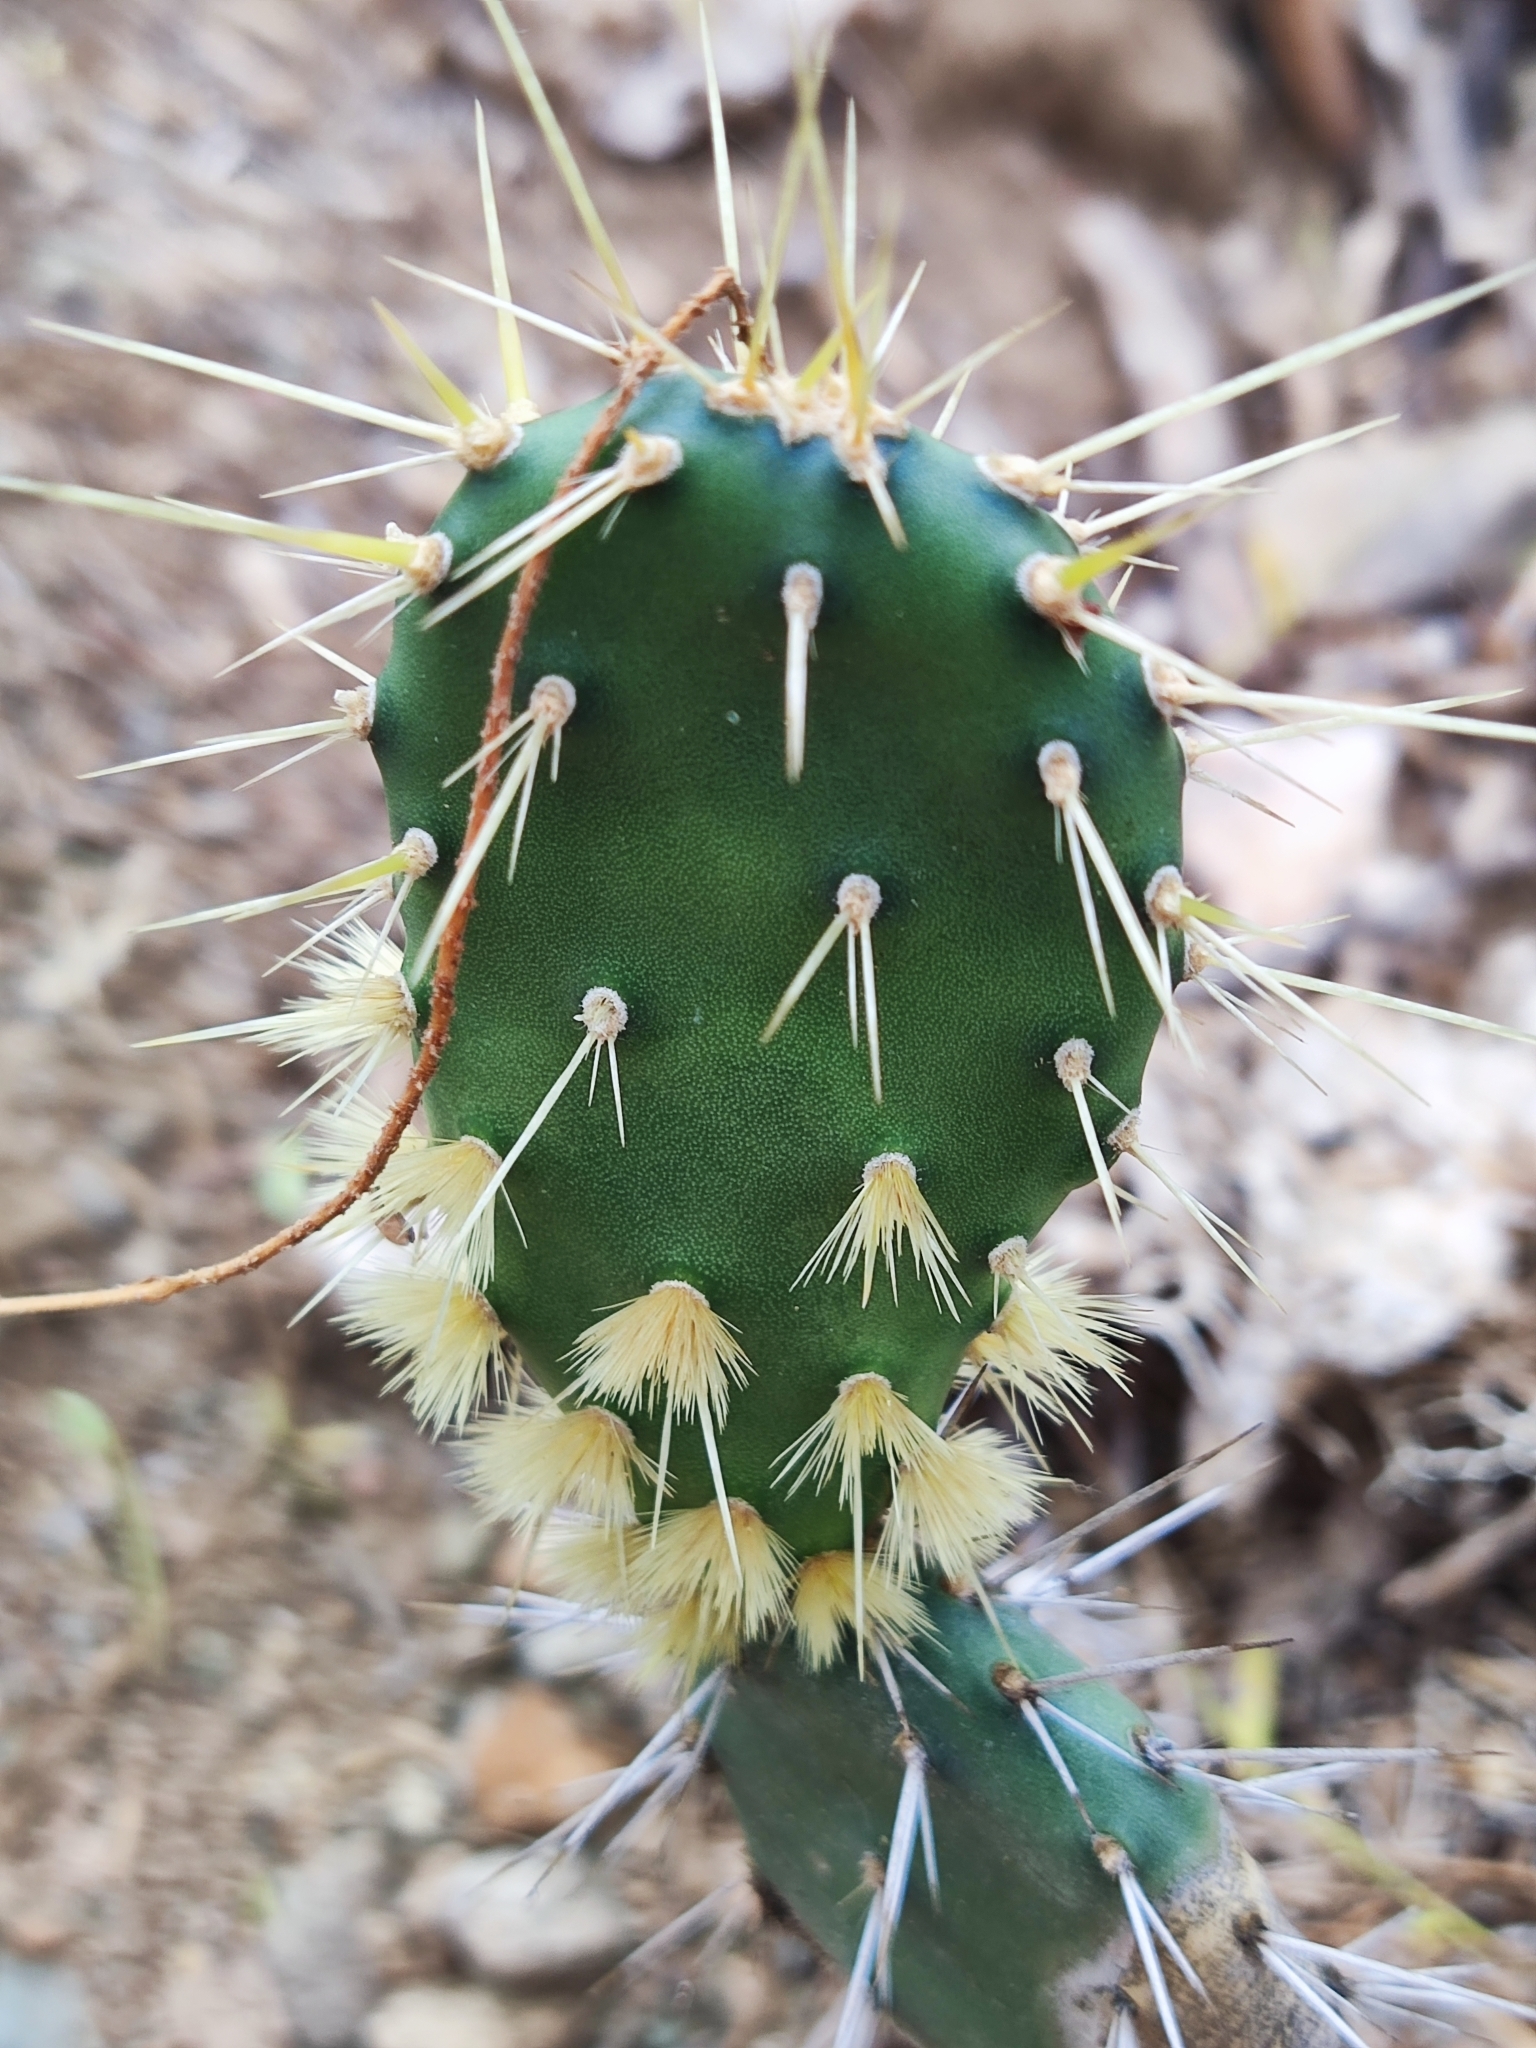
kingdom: Plantae
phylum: Tracheophyta
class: Magnoliopsida
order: Caryophyllales
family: Cactaceae
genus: Opuntia
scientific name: Opuntia caracassana
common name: Common prickly pear
